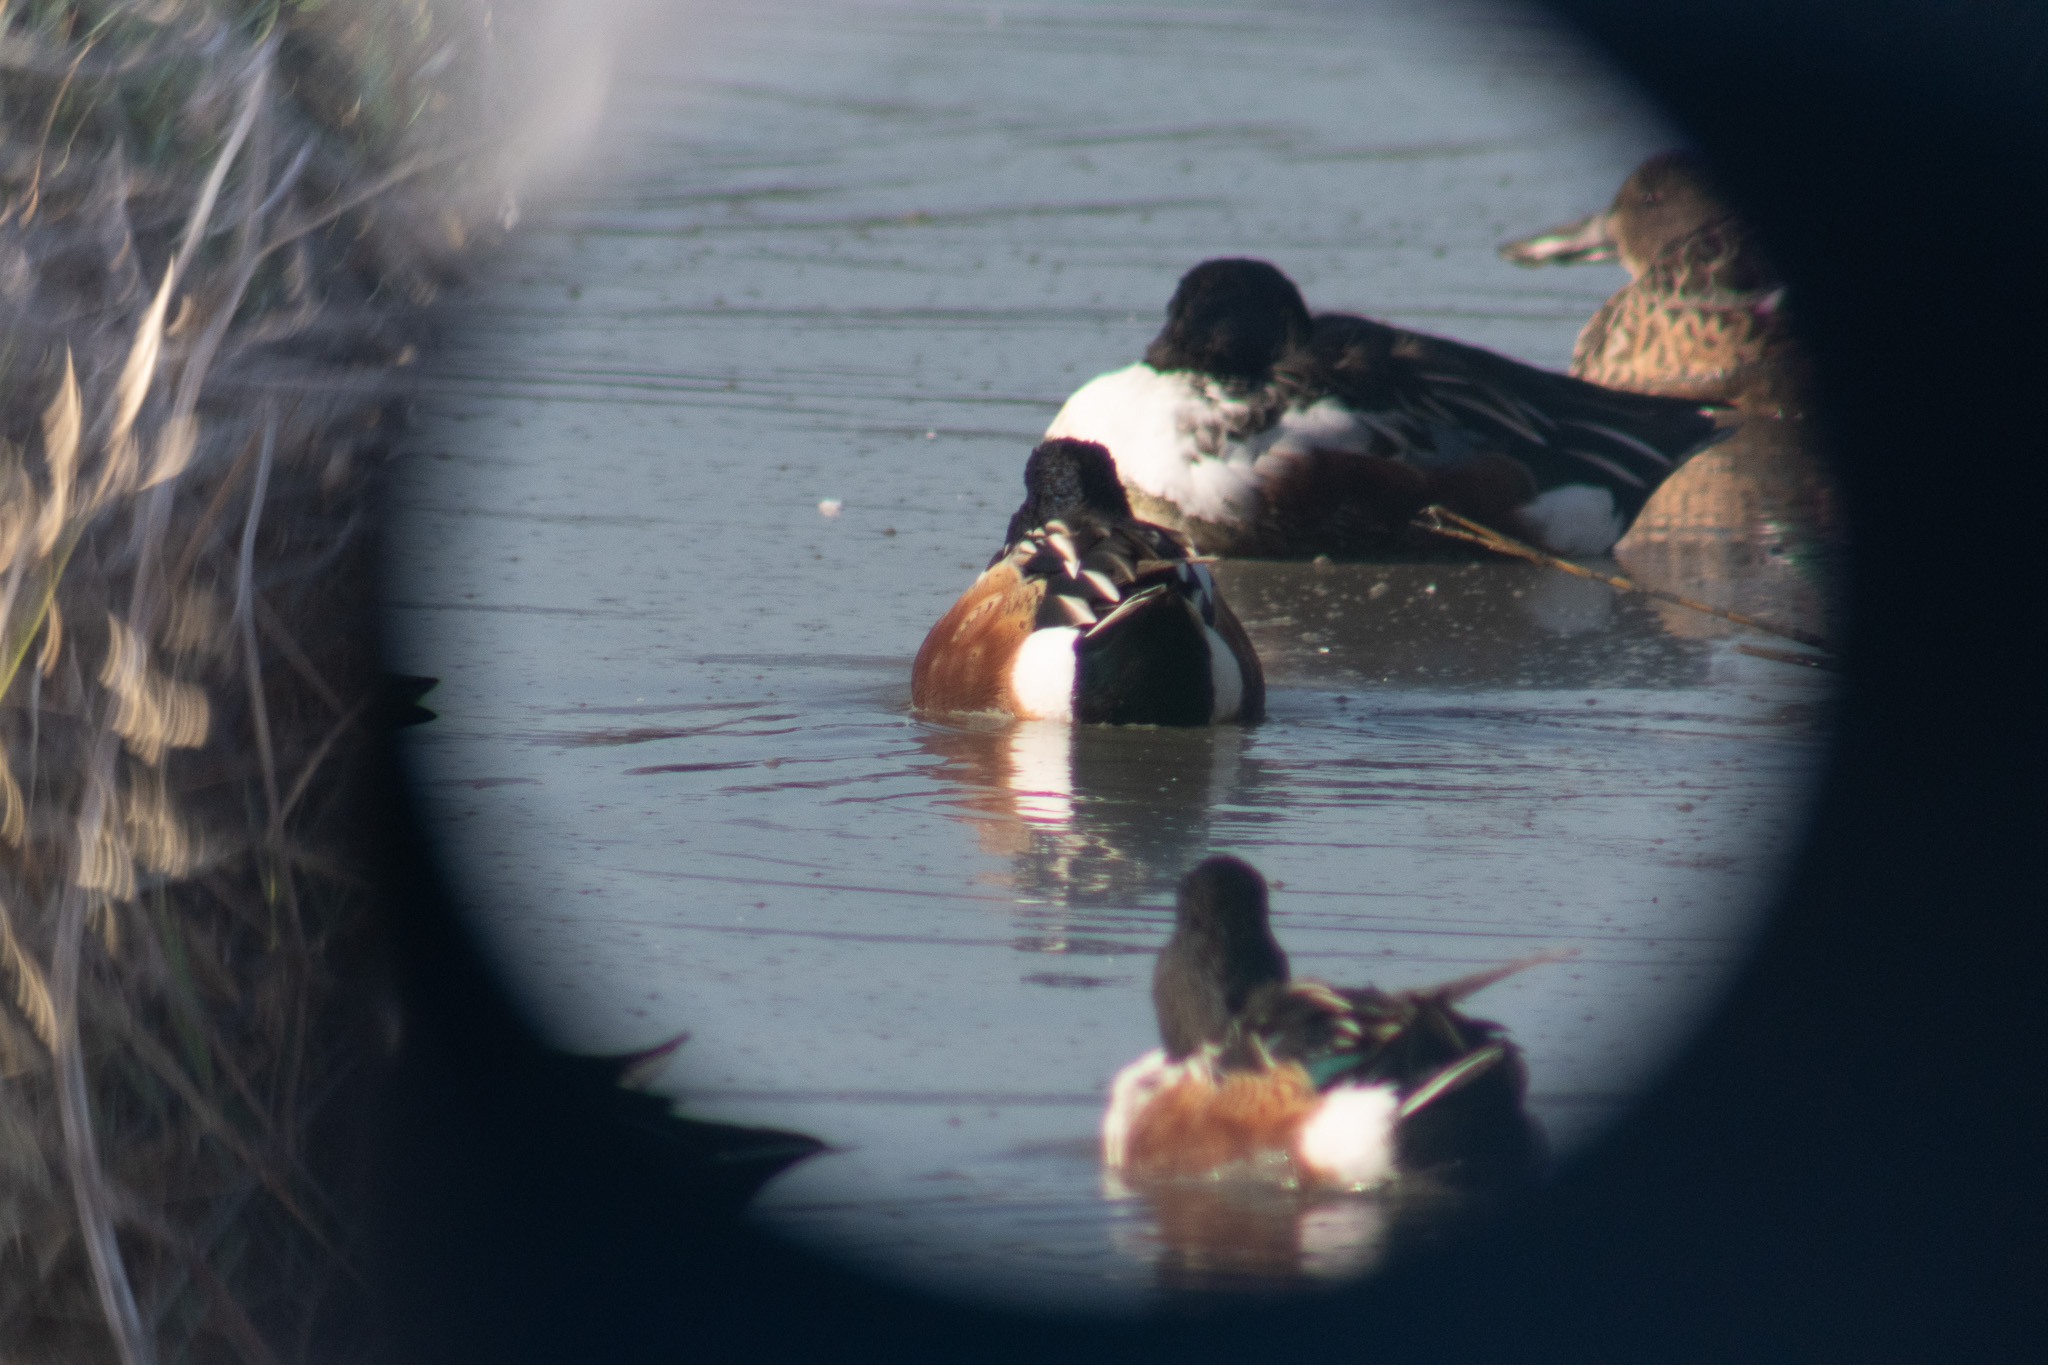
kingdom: Animalia
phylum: Chordata
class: Aves
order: Anseriformes
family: Anatidae
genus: Spatula
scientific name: Spatula clypeata
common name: Northern shoveler
